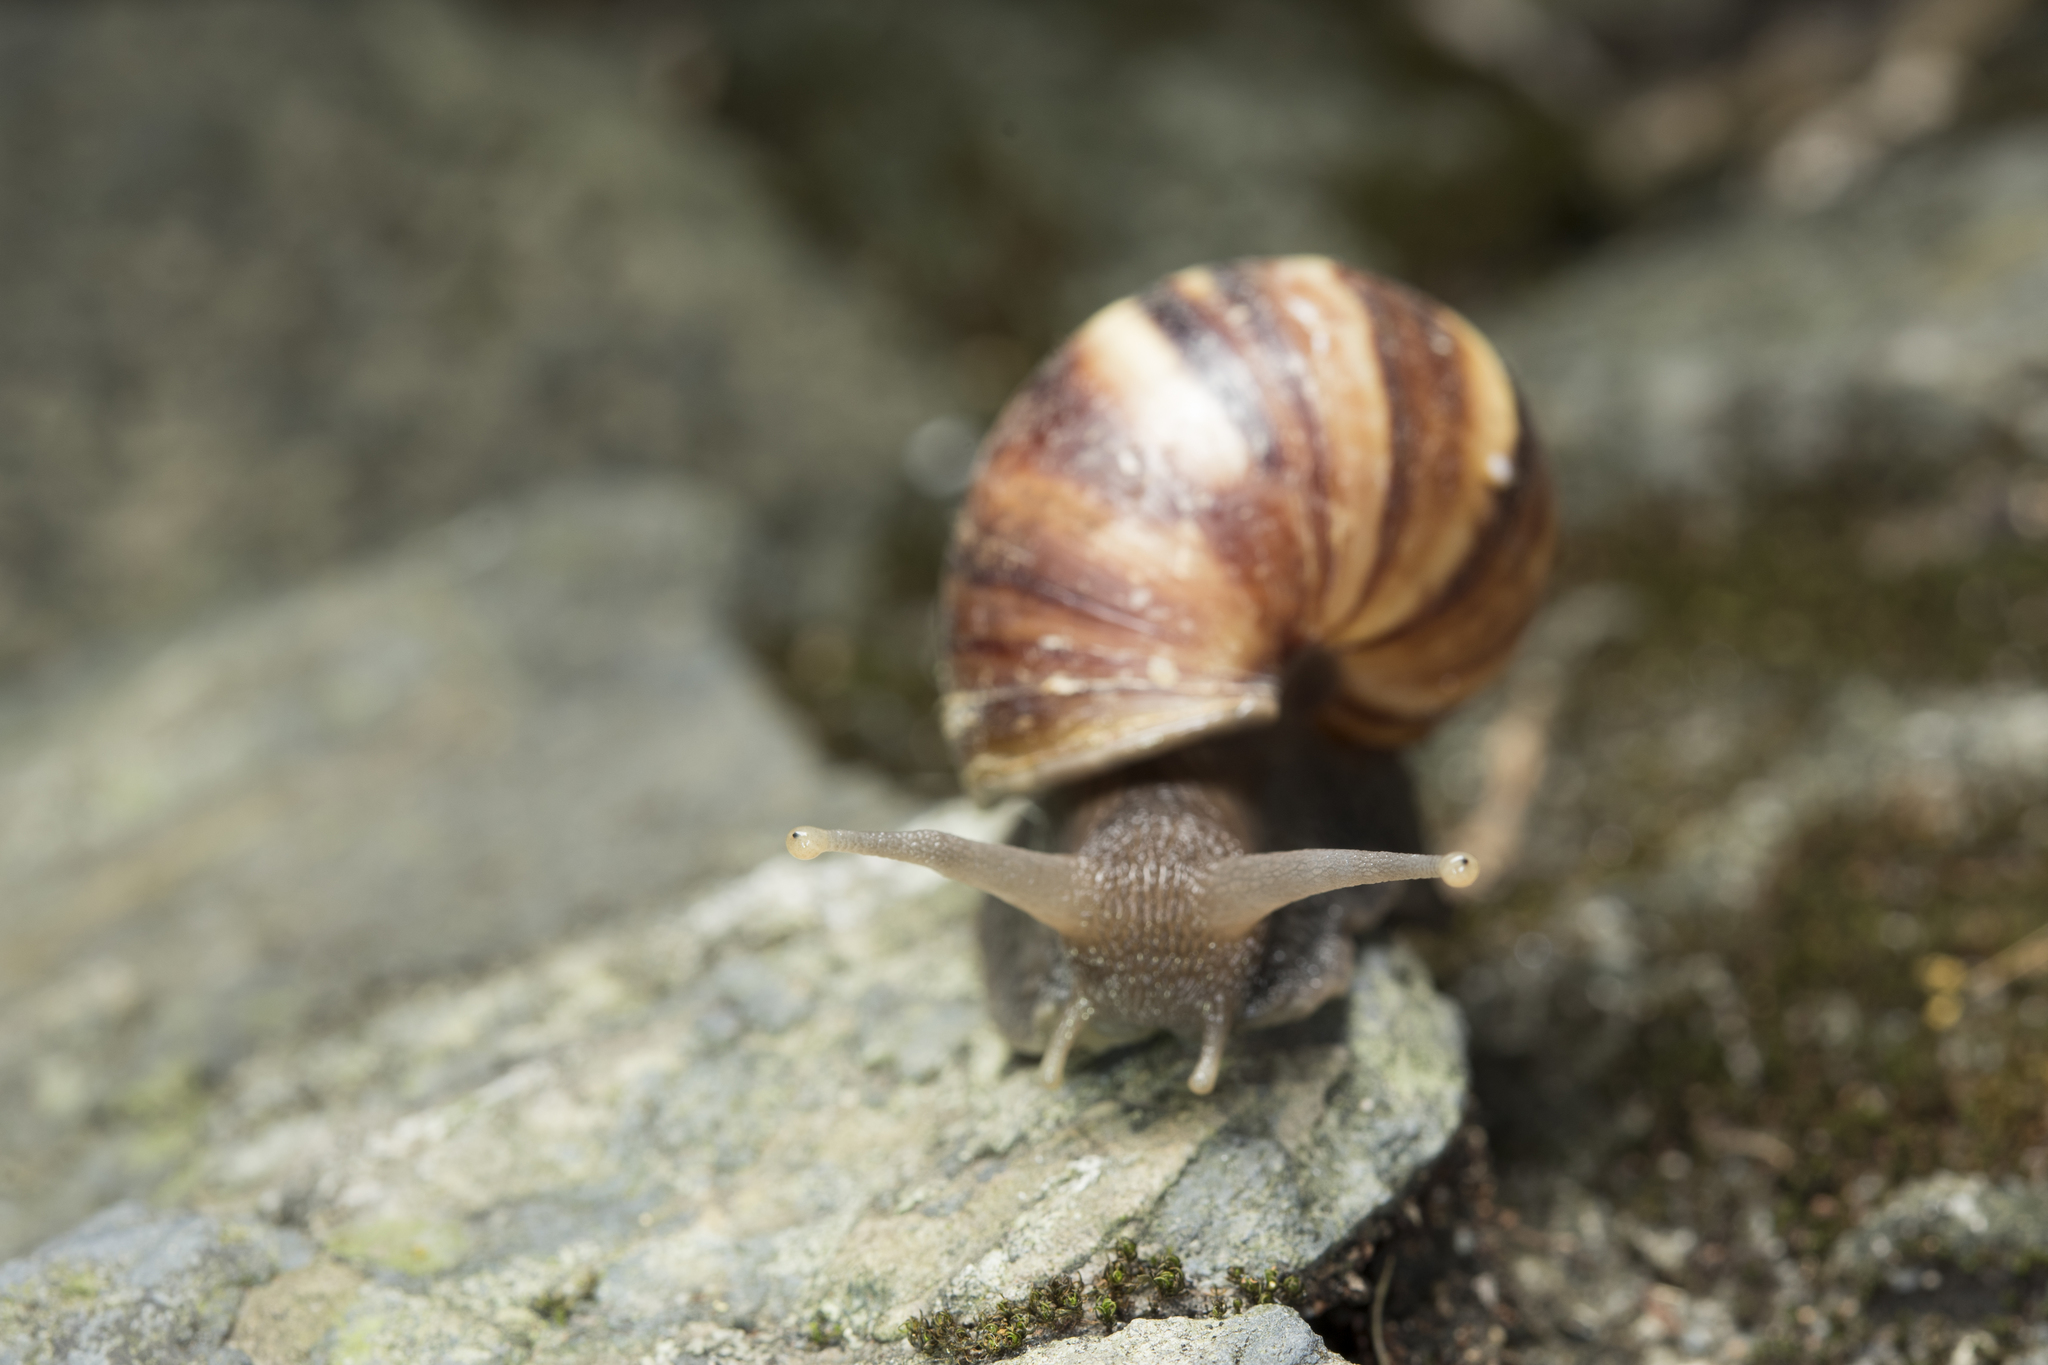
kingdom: Animalia
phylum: Mollusca
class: Gastropoda
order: Stylommatophora
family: Achatinidae
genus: Lissachatina
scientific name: Lissachatina fulica
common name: Giant african snail
